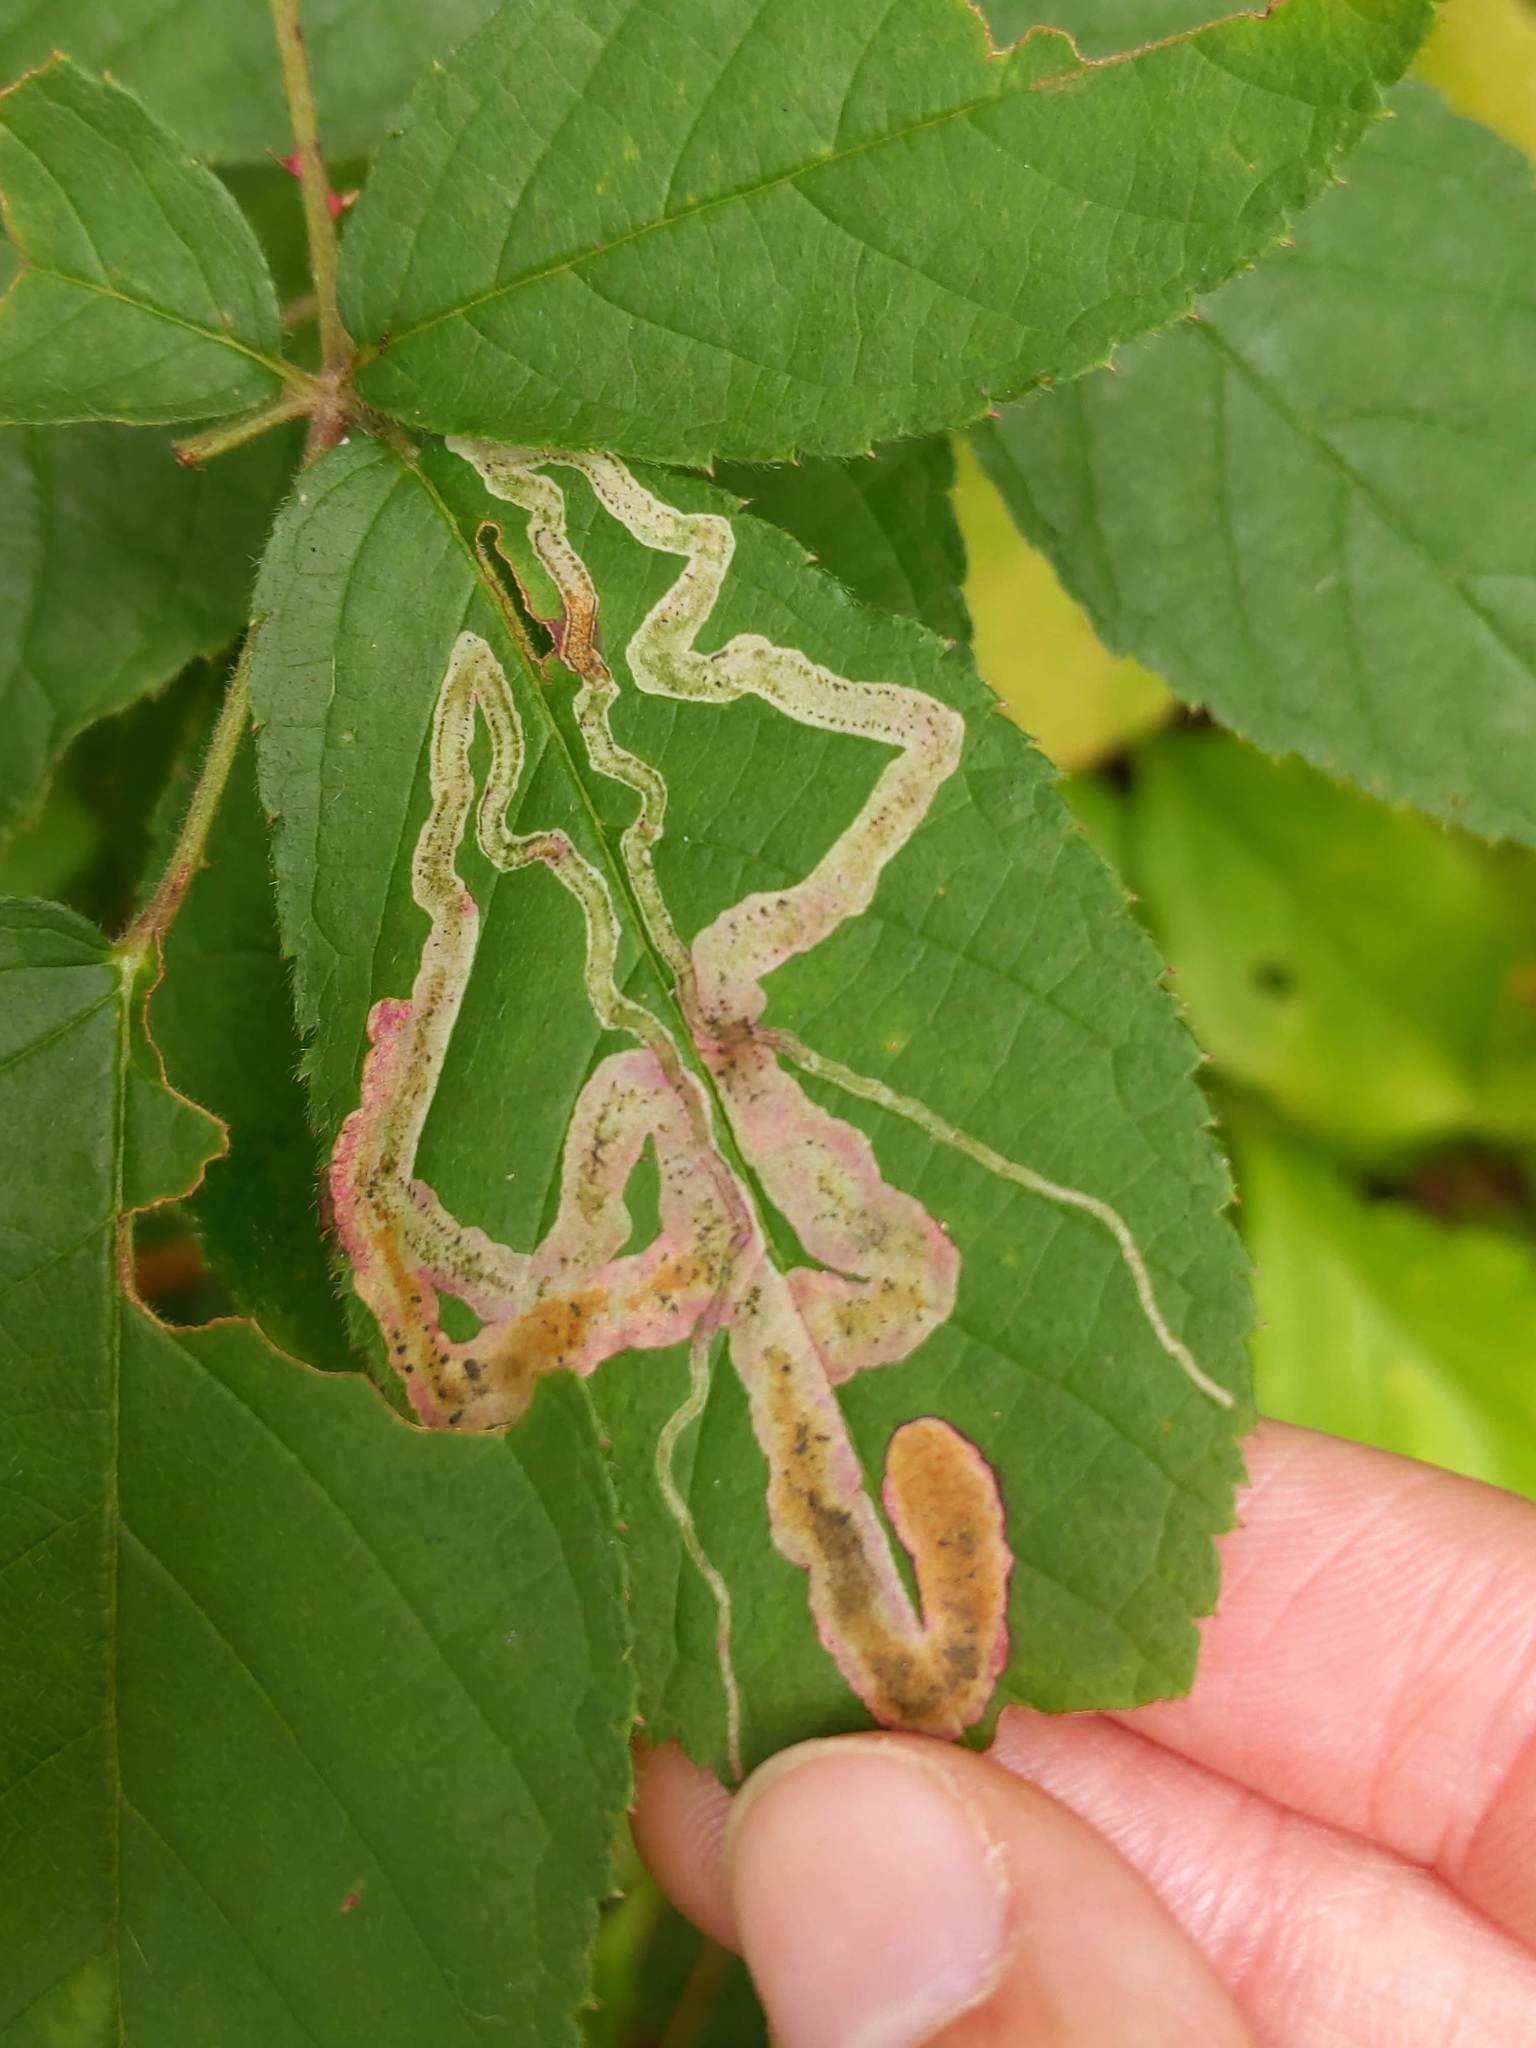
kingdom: Animalia
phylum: Arthropoda
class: Insecta
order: Diptera
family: Agromyzidae
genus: Agromyza
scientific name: Agromyza vockerothi
